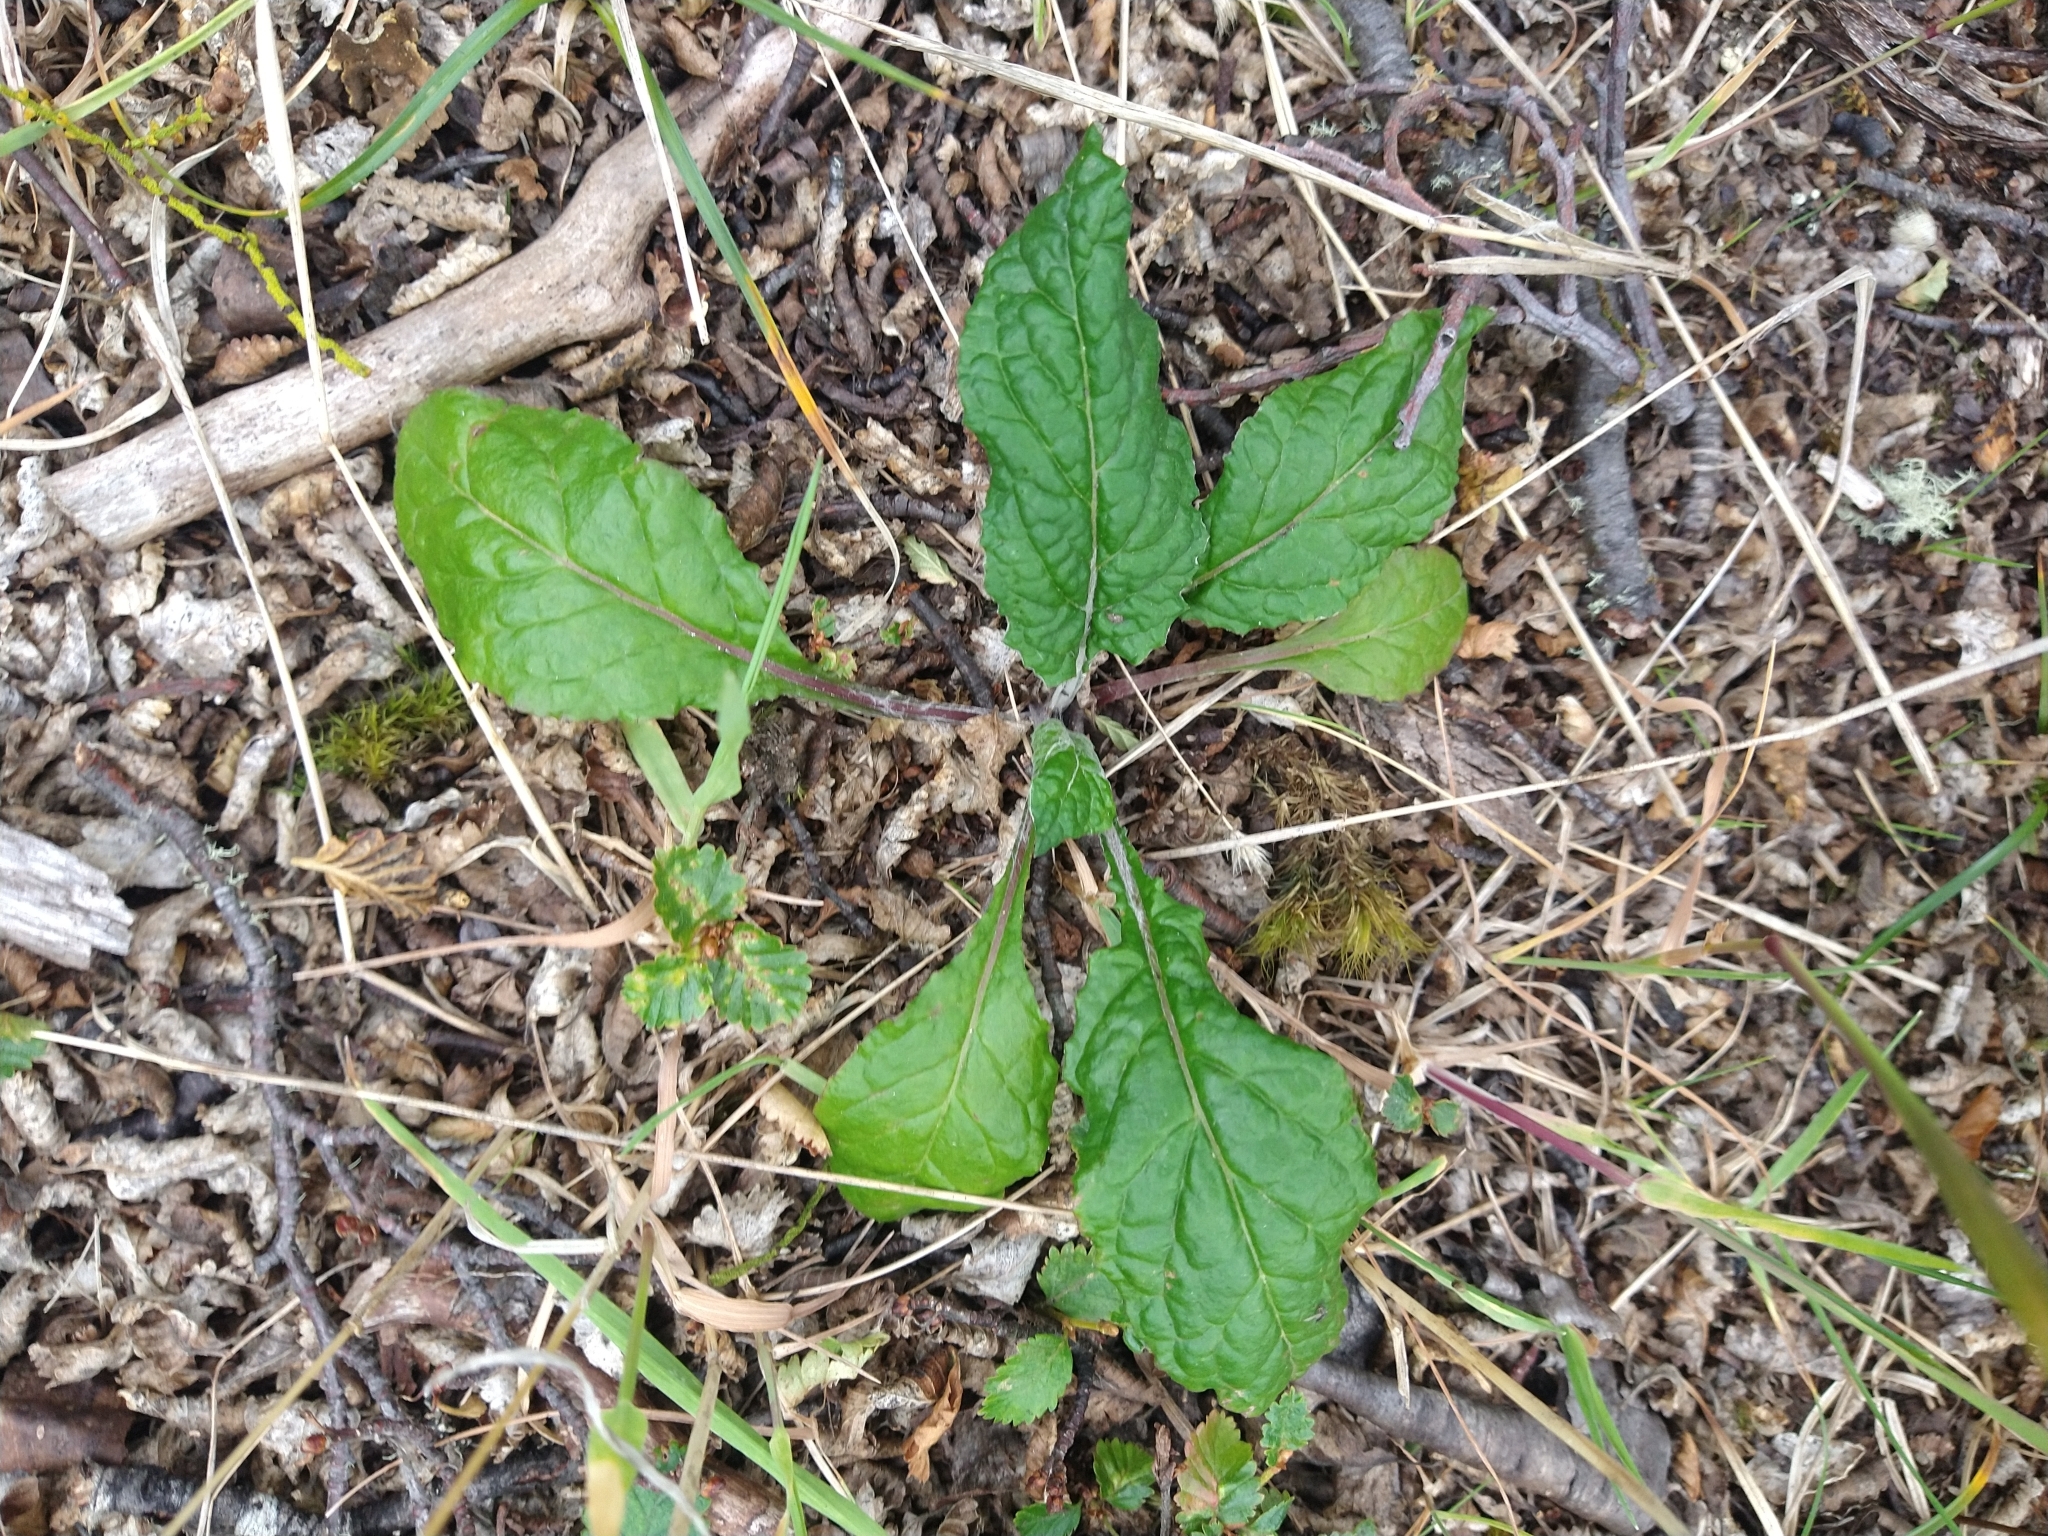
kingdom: Plantae
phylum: Tracheophyta
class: Magnoliopsida
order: Asterales
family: Asteraceae
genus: Adenocaulon
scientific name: Adenocaulon chilense
